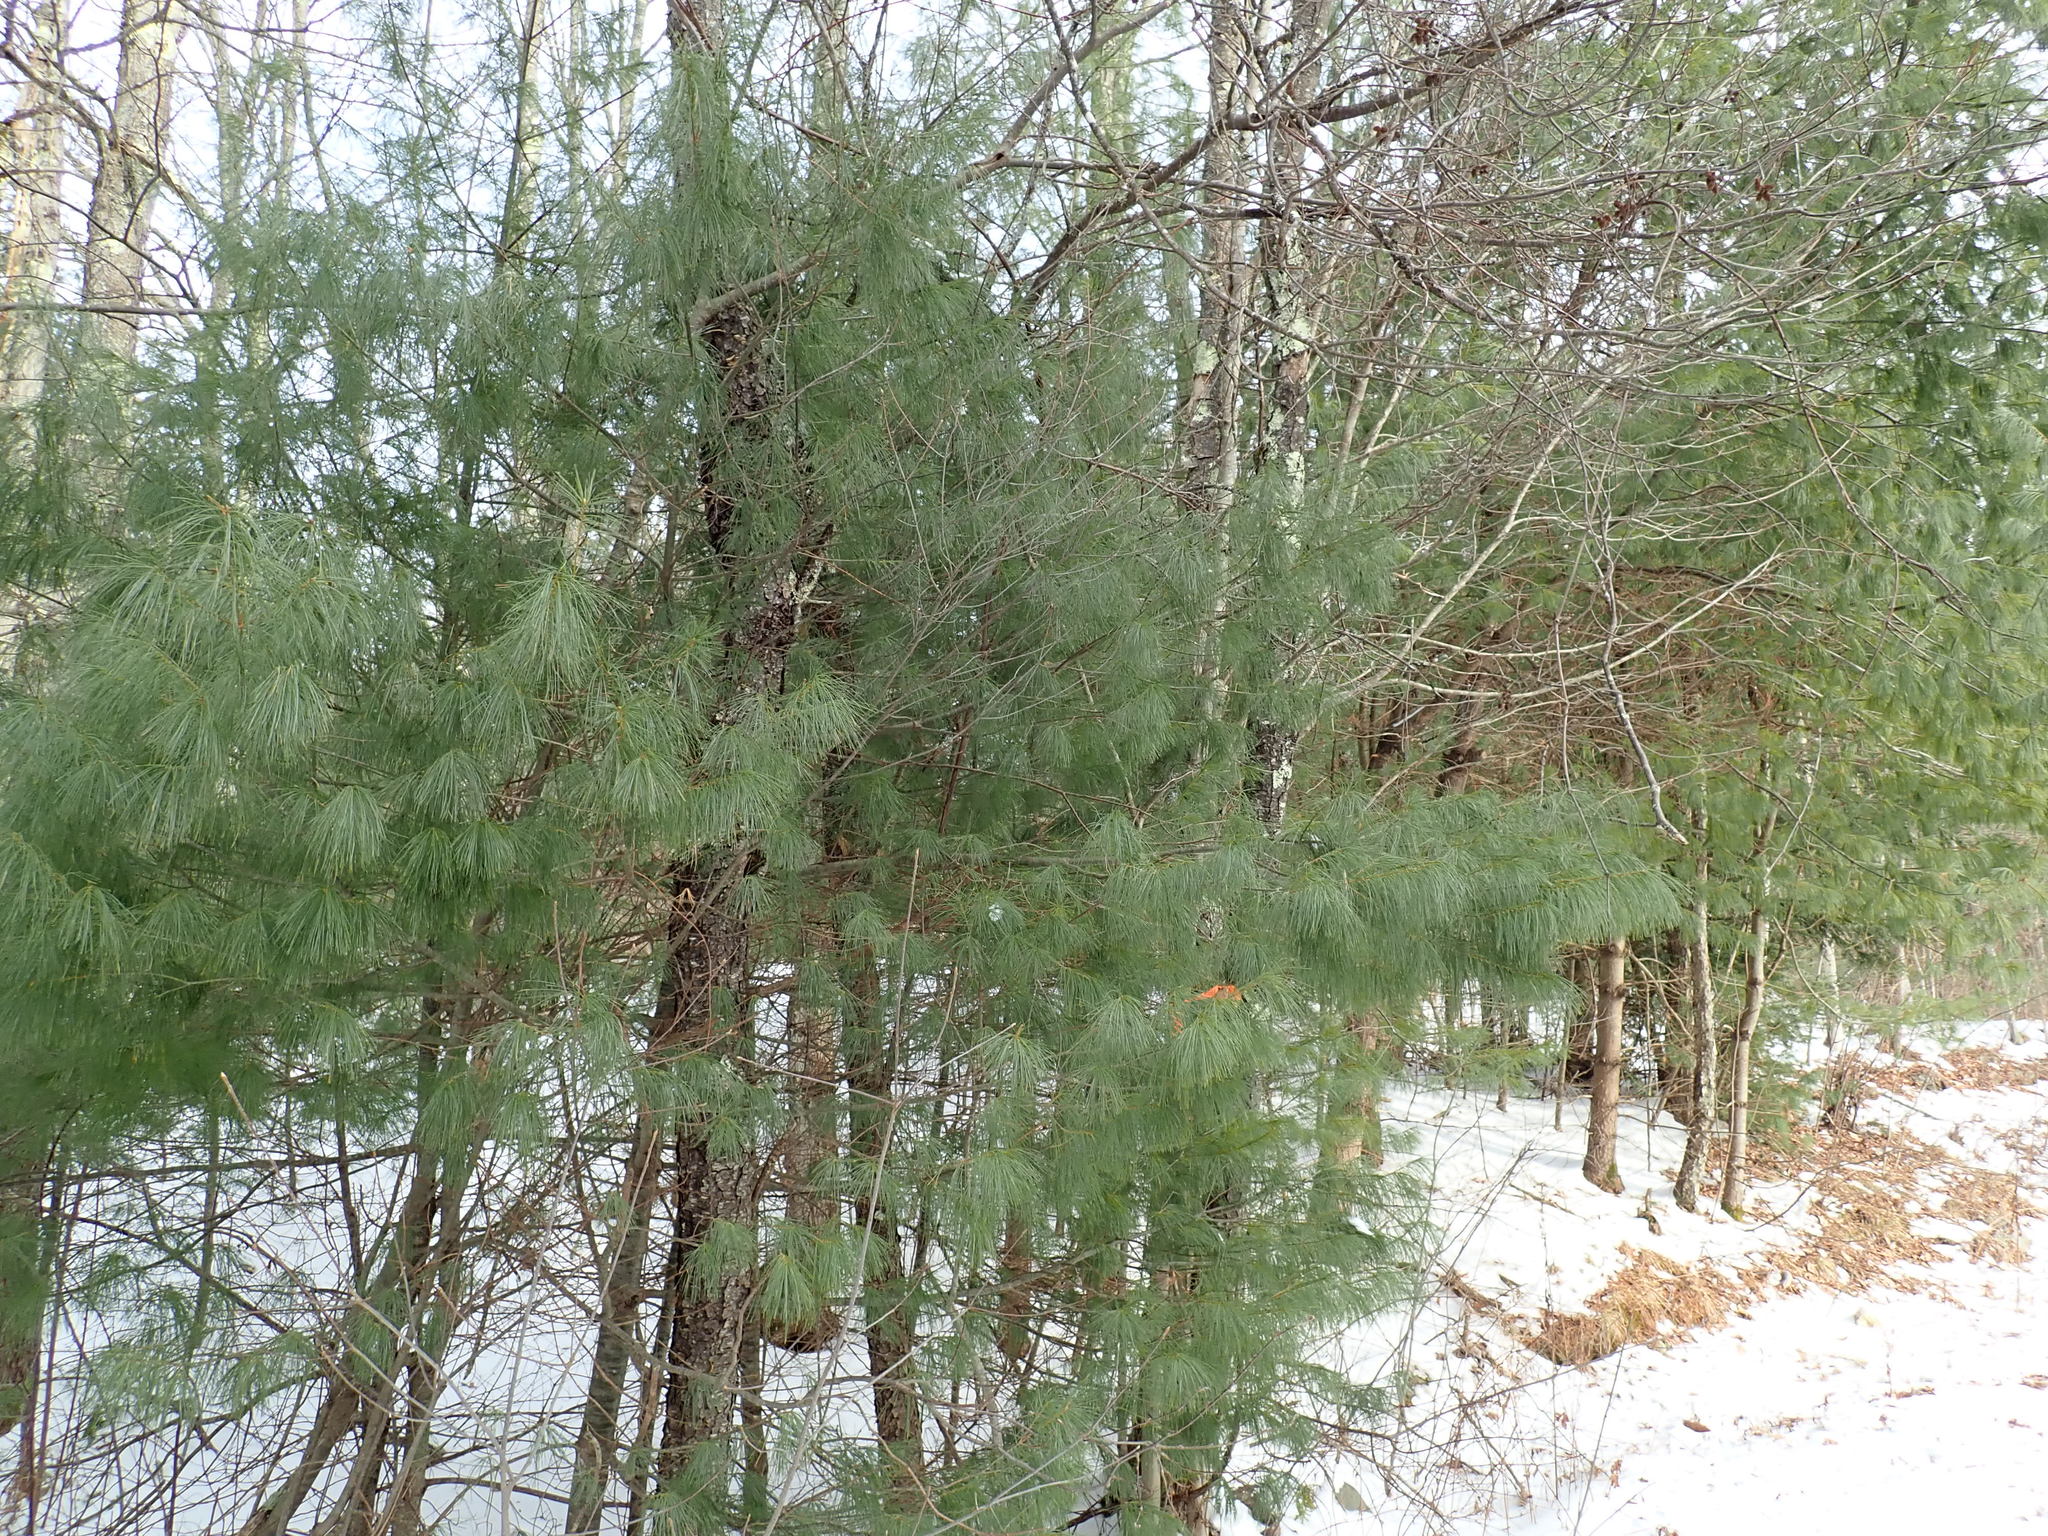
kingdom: Plantae
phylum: Tracheophyta
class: Pinopsida
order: Pinales
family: Pinaceae
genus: Pinus
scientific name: Pinus strobus
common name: Weymouth pine
